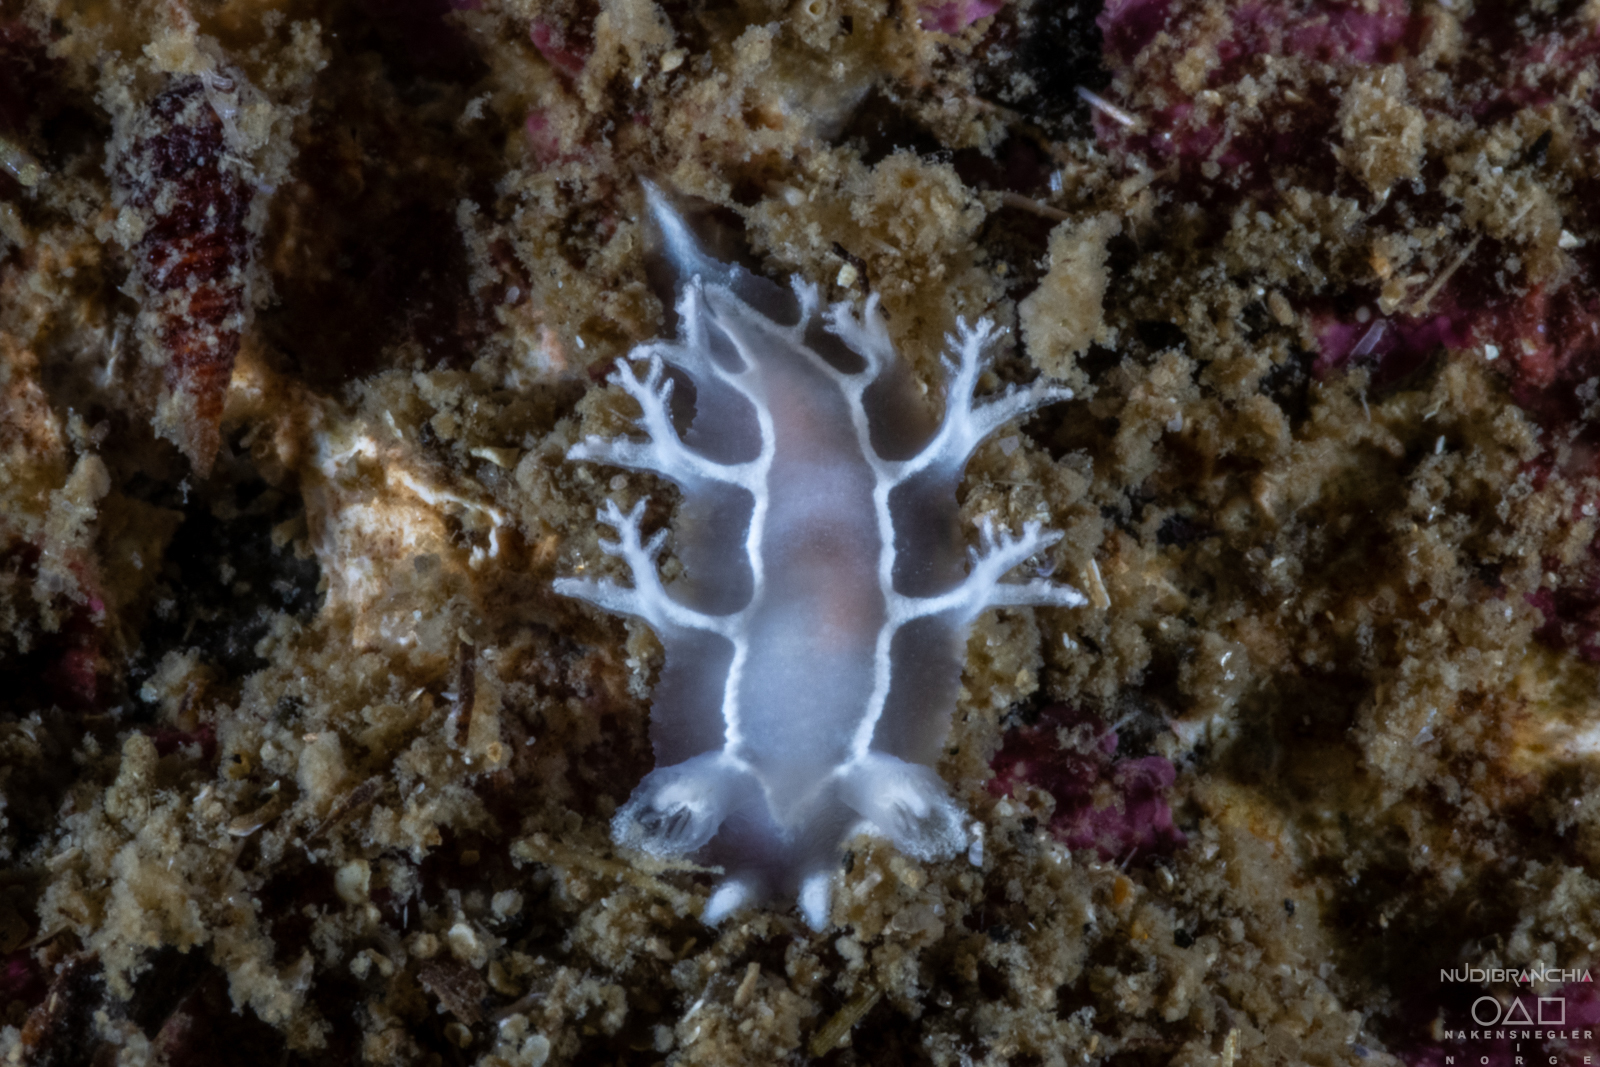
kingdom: Animalia
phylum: Mollusca
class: Gastropoda
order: Nudibranchia
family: Tritoniidae
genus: Duvaucelia
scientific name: Duvaucelia lineata
